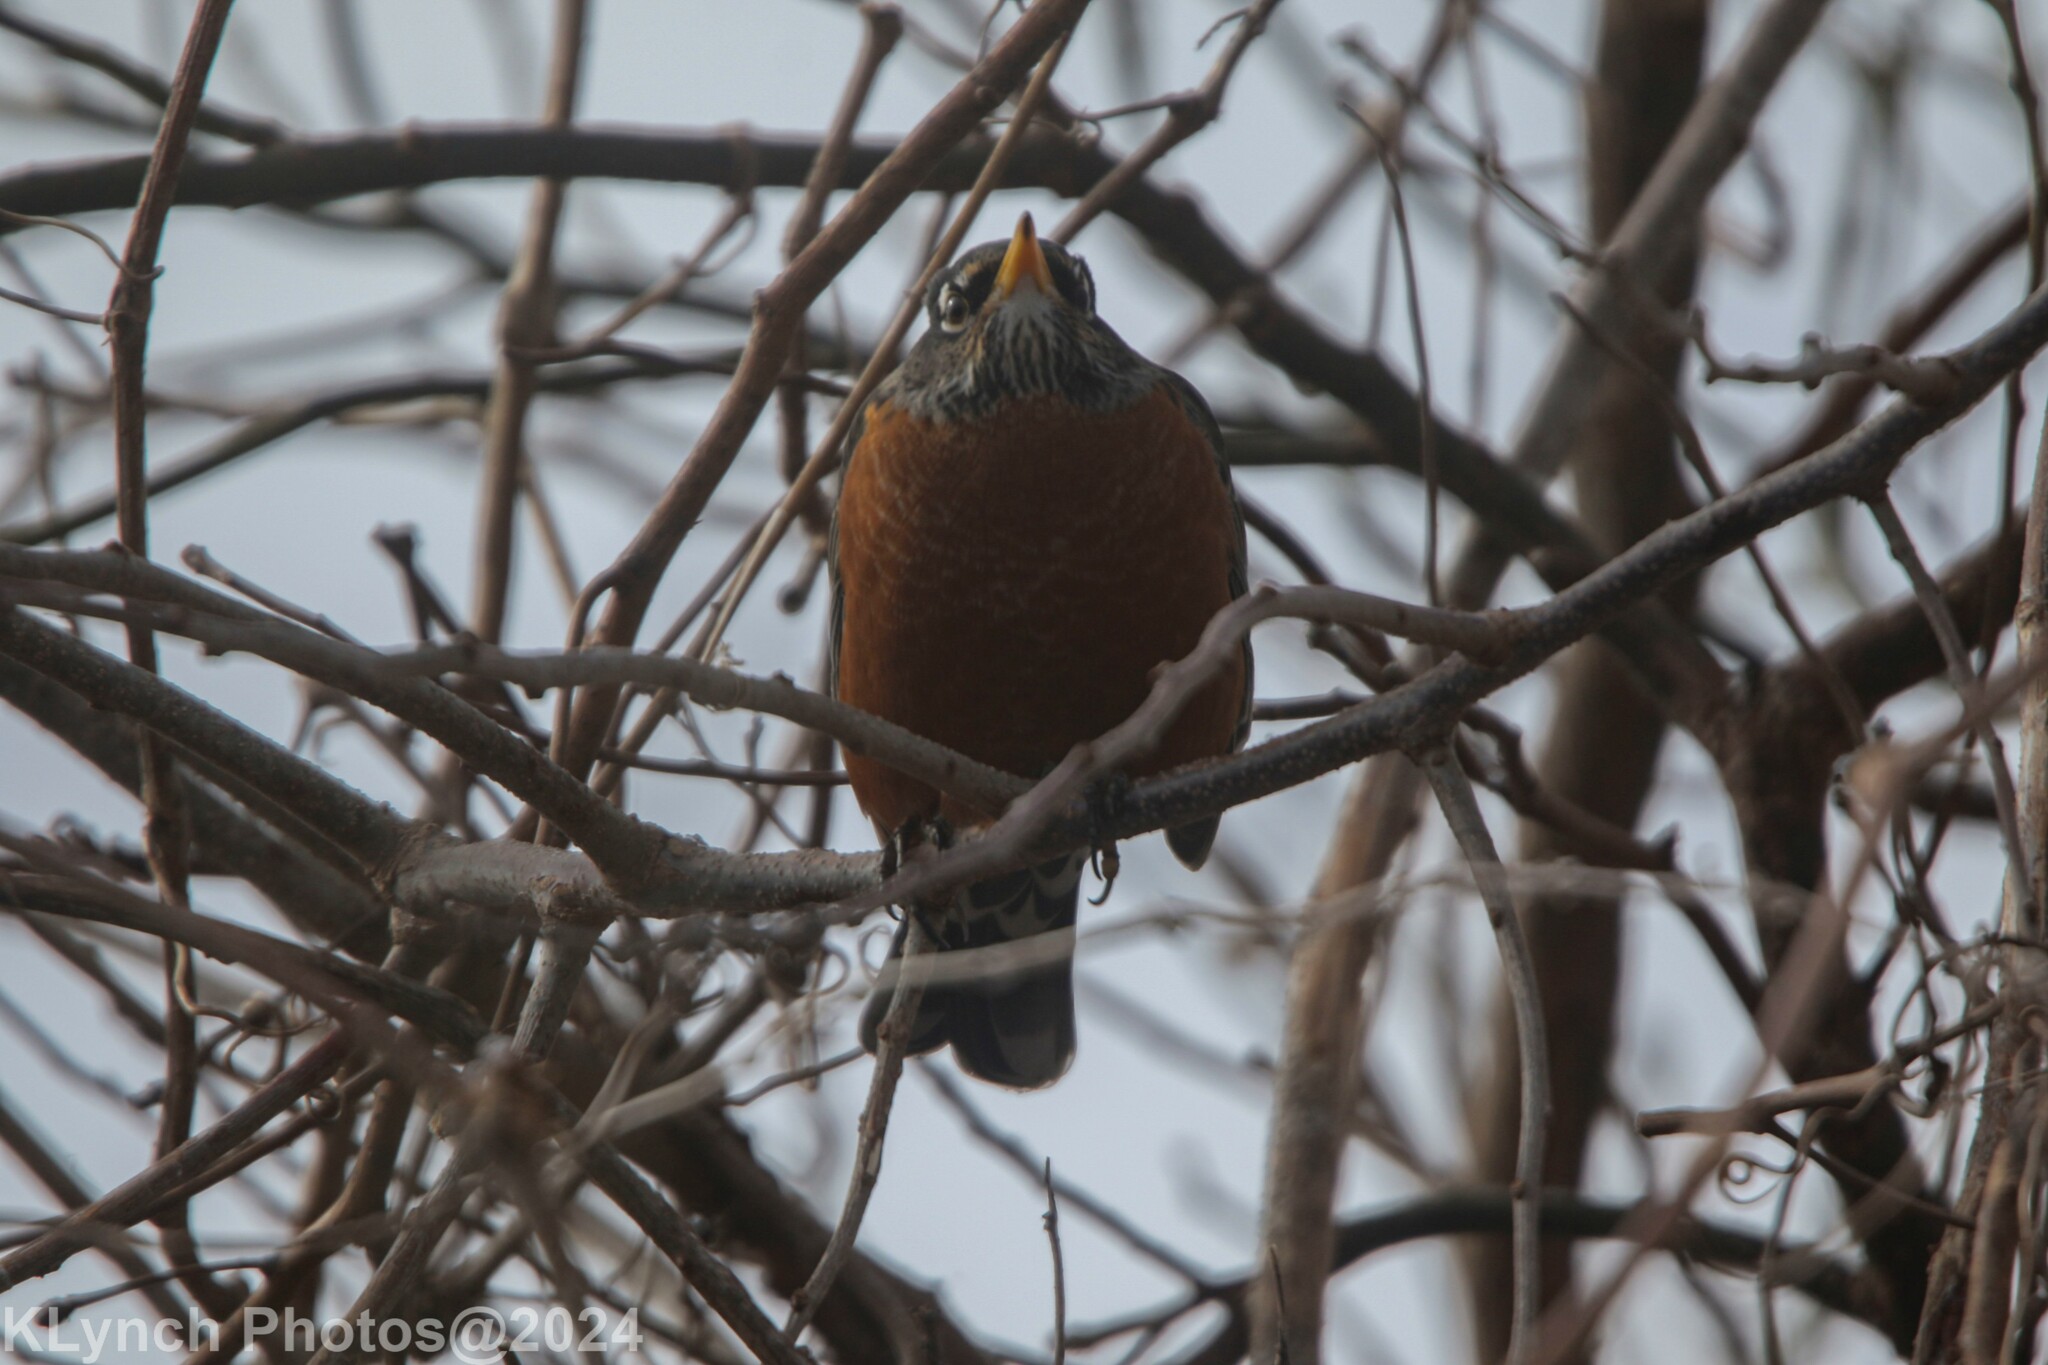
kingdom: Animalia
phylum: Chordata
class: Aves
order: Passeriformes
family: Turdidae
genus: Turdus
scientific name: Turdus migratorius
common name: American robin
